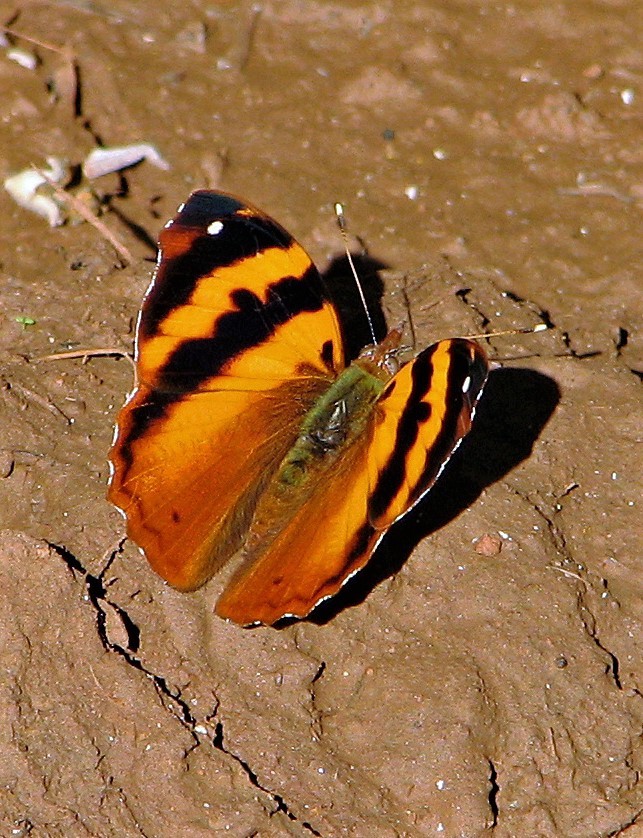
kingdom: Animalia
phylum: Arthropoda
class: Insecta
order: Lepidoptera
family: Nymphalidae
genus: Epiphile
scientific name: Epiphile hubneri
